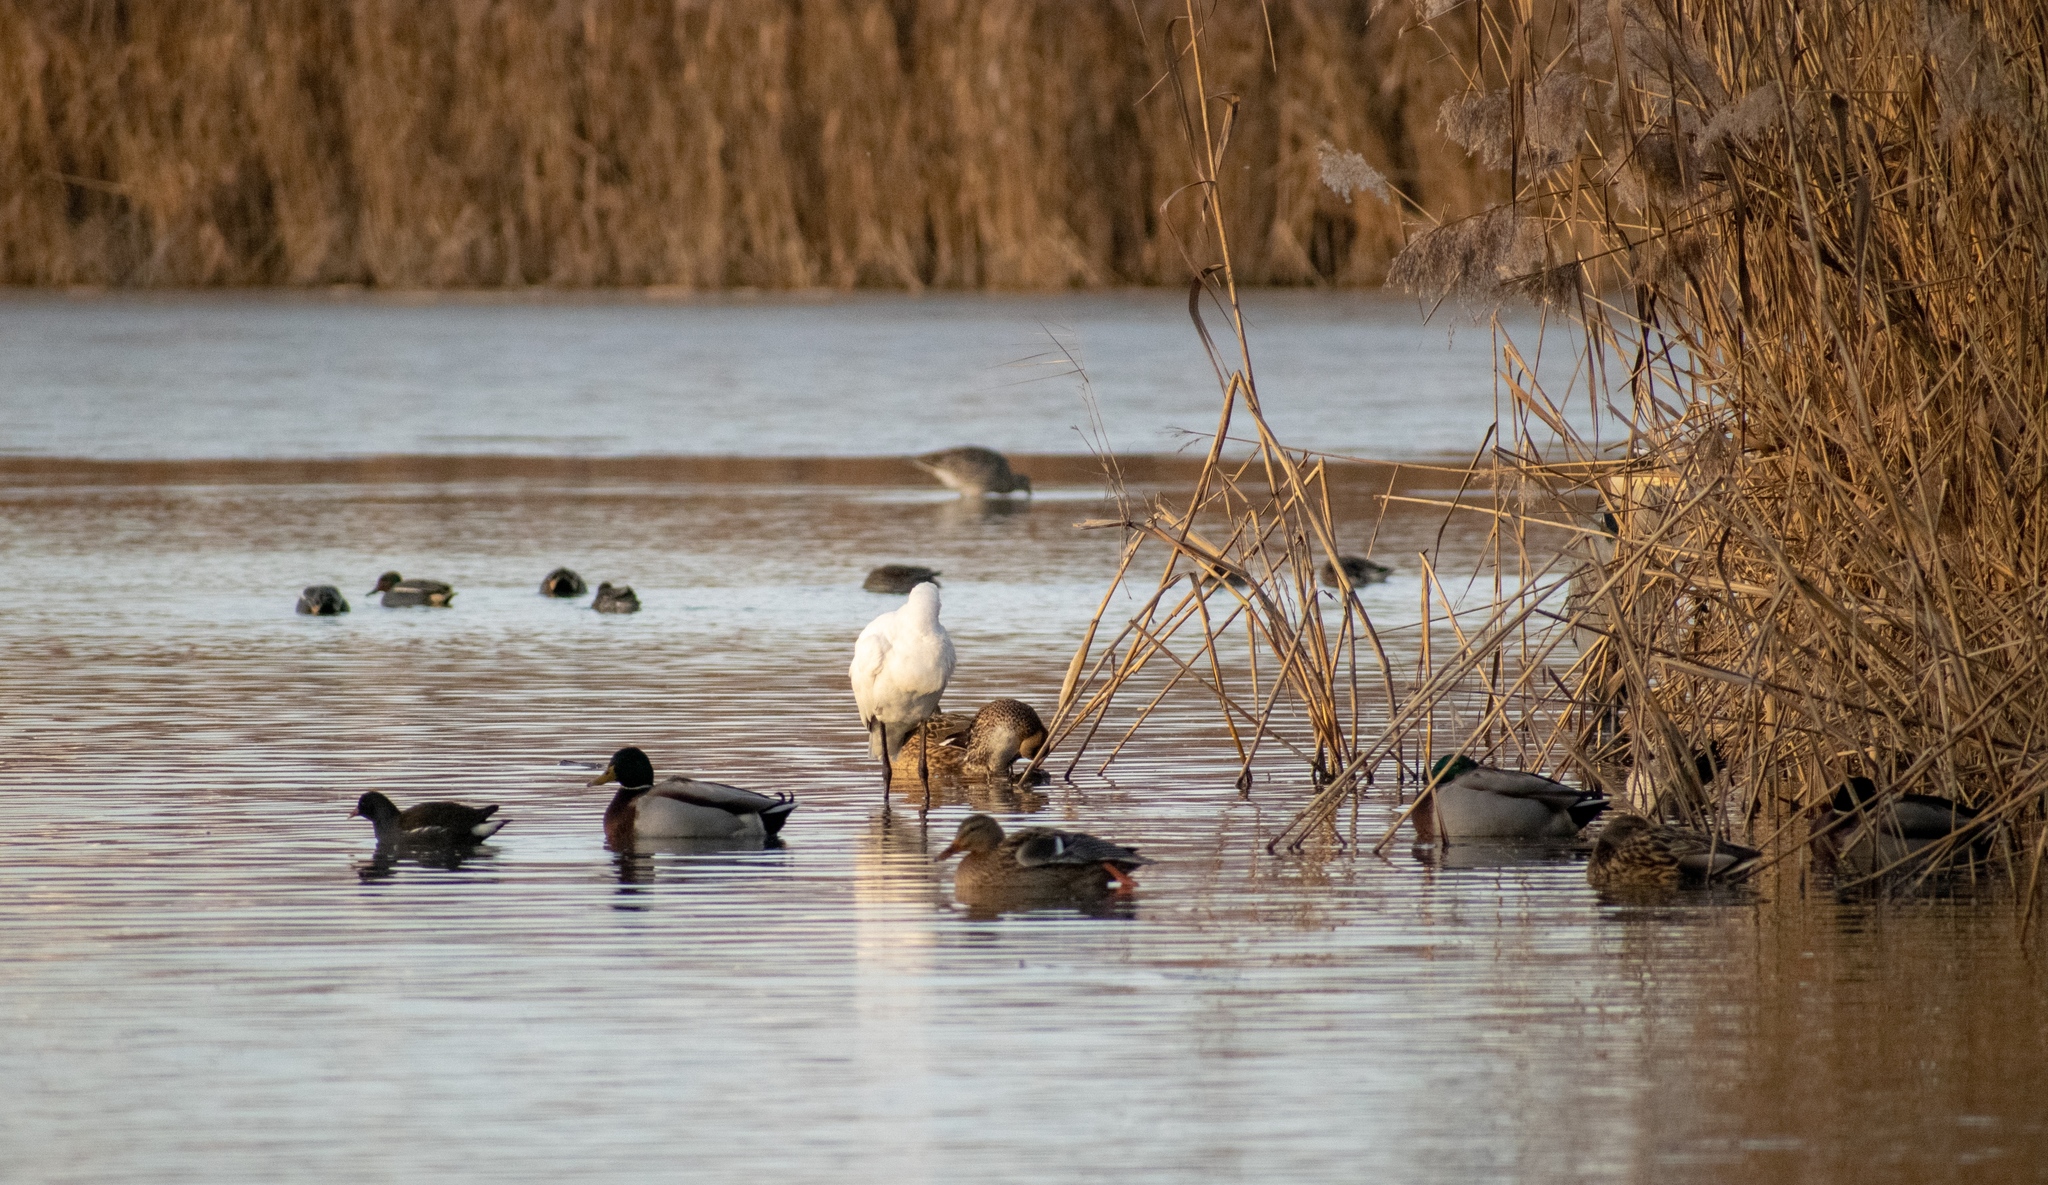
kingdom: Animalia
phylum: Chordata
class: Aves
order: Anseriformes
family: Anatidae
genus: Anas
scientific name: Anas crecca
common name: Eurasian teal
